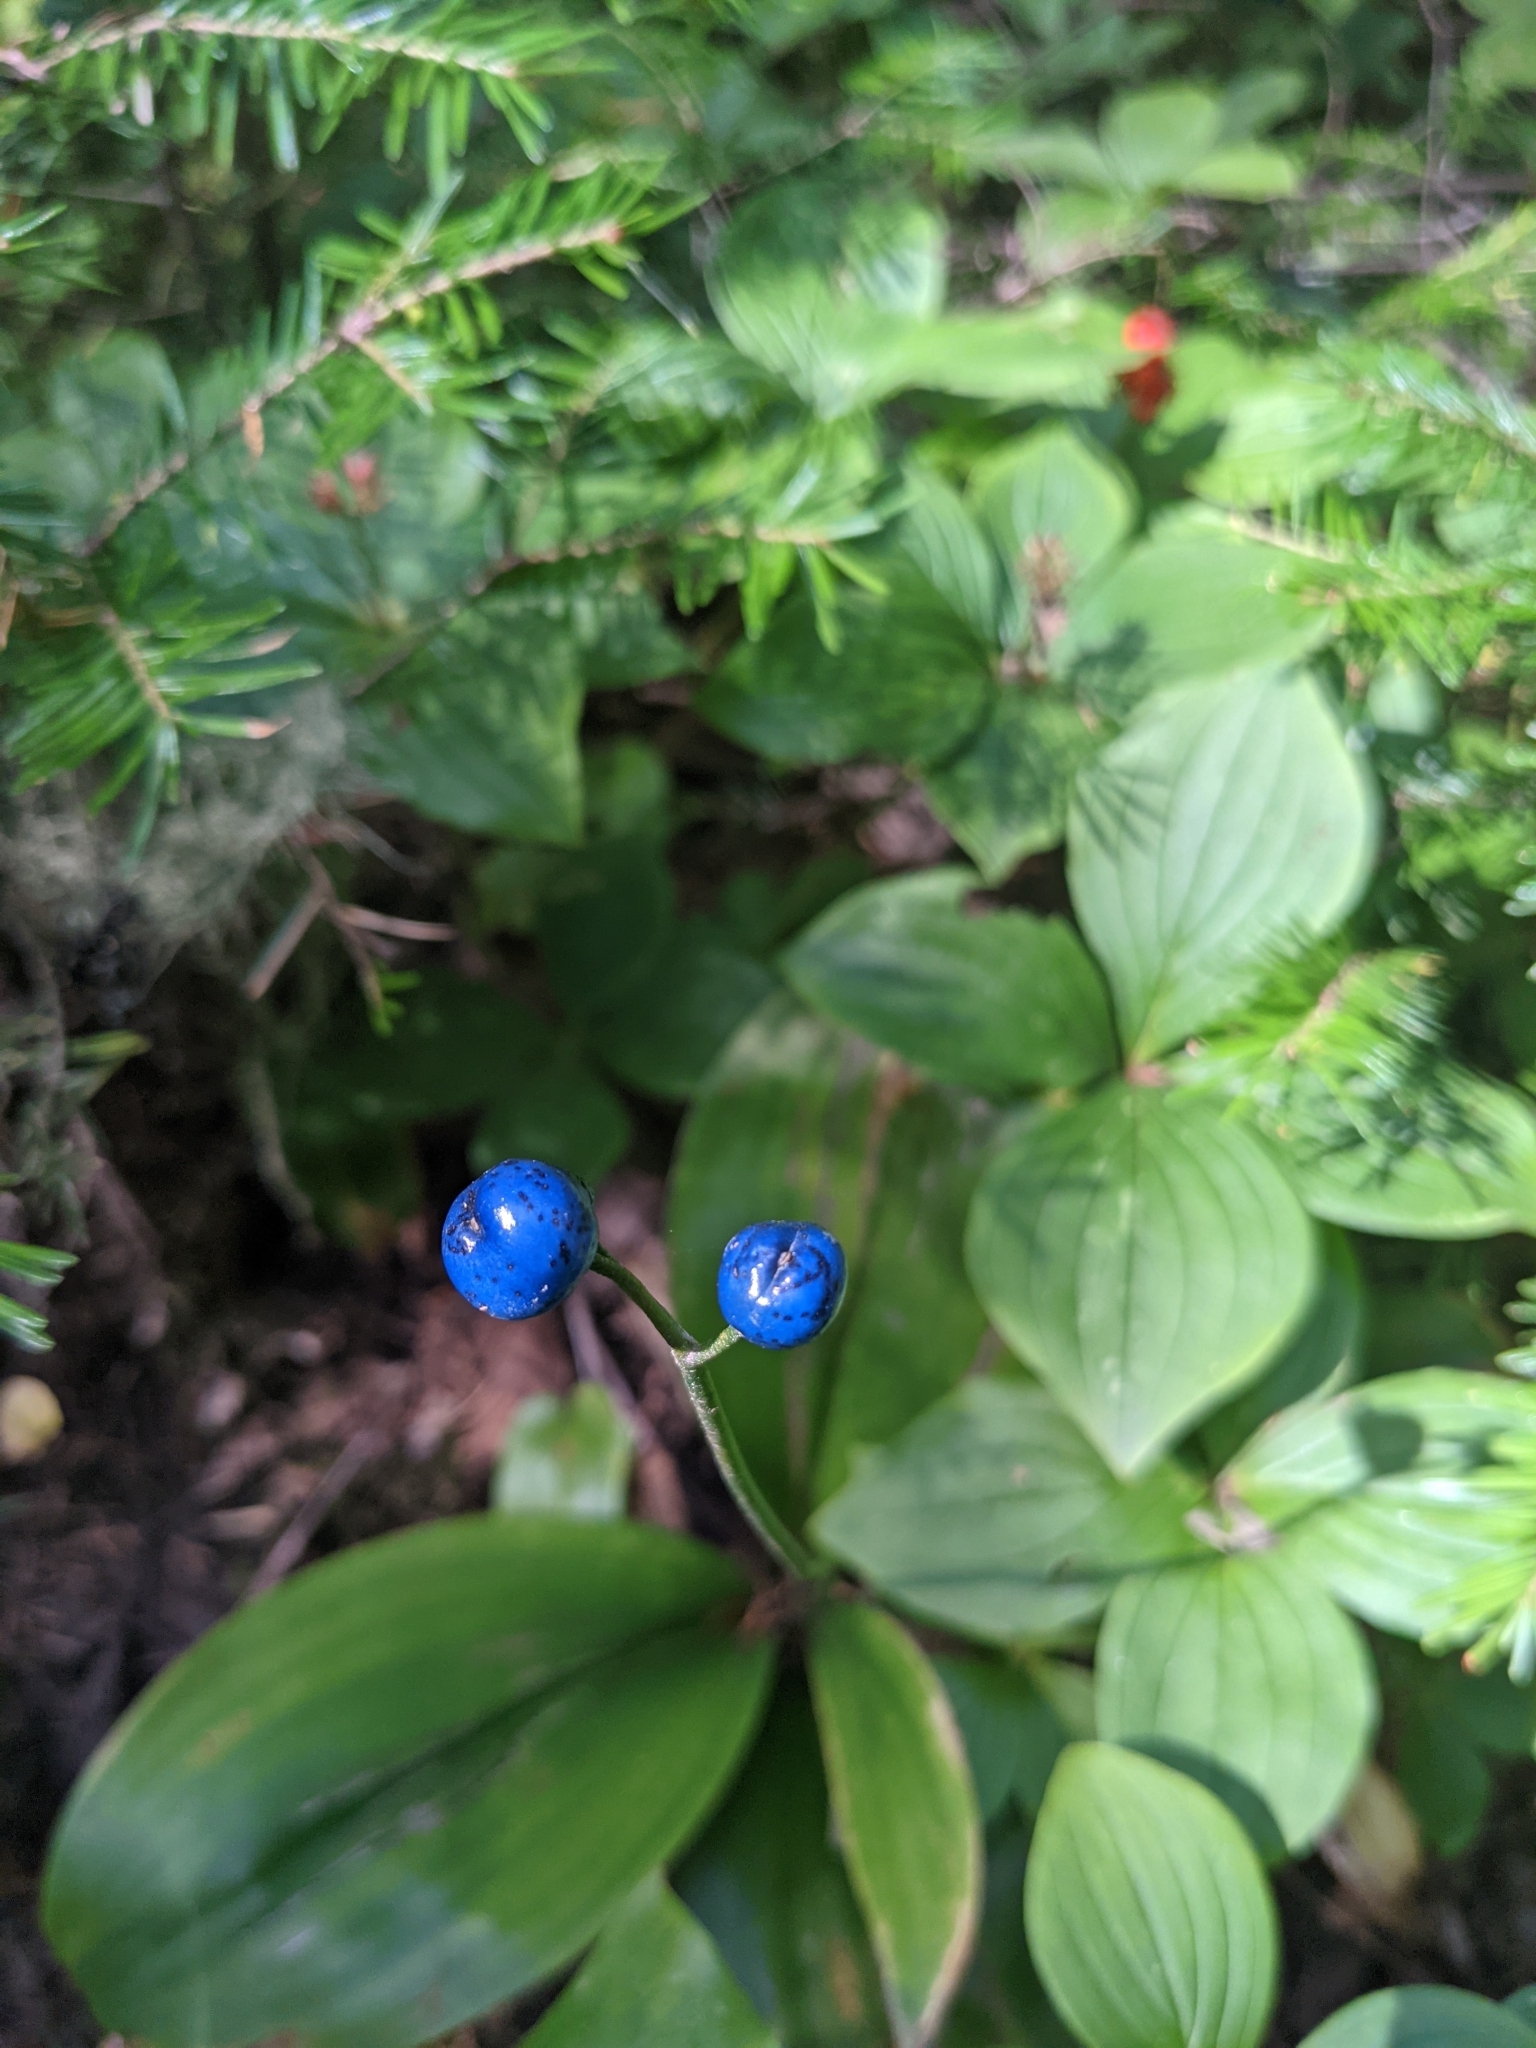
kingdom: Plantae
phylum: Tracheophyta
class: Liliopsida
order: Liliales
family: Liliaceae
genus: Clintonia
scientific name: Clintonia borealis
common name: Yellow clintonia
